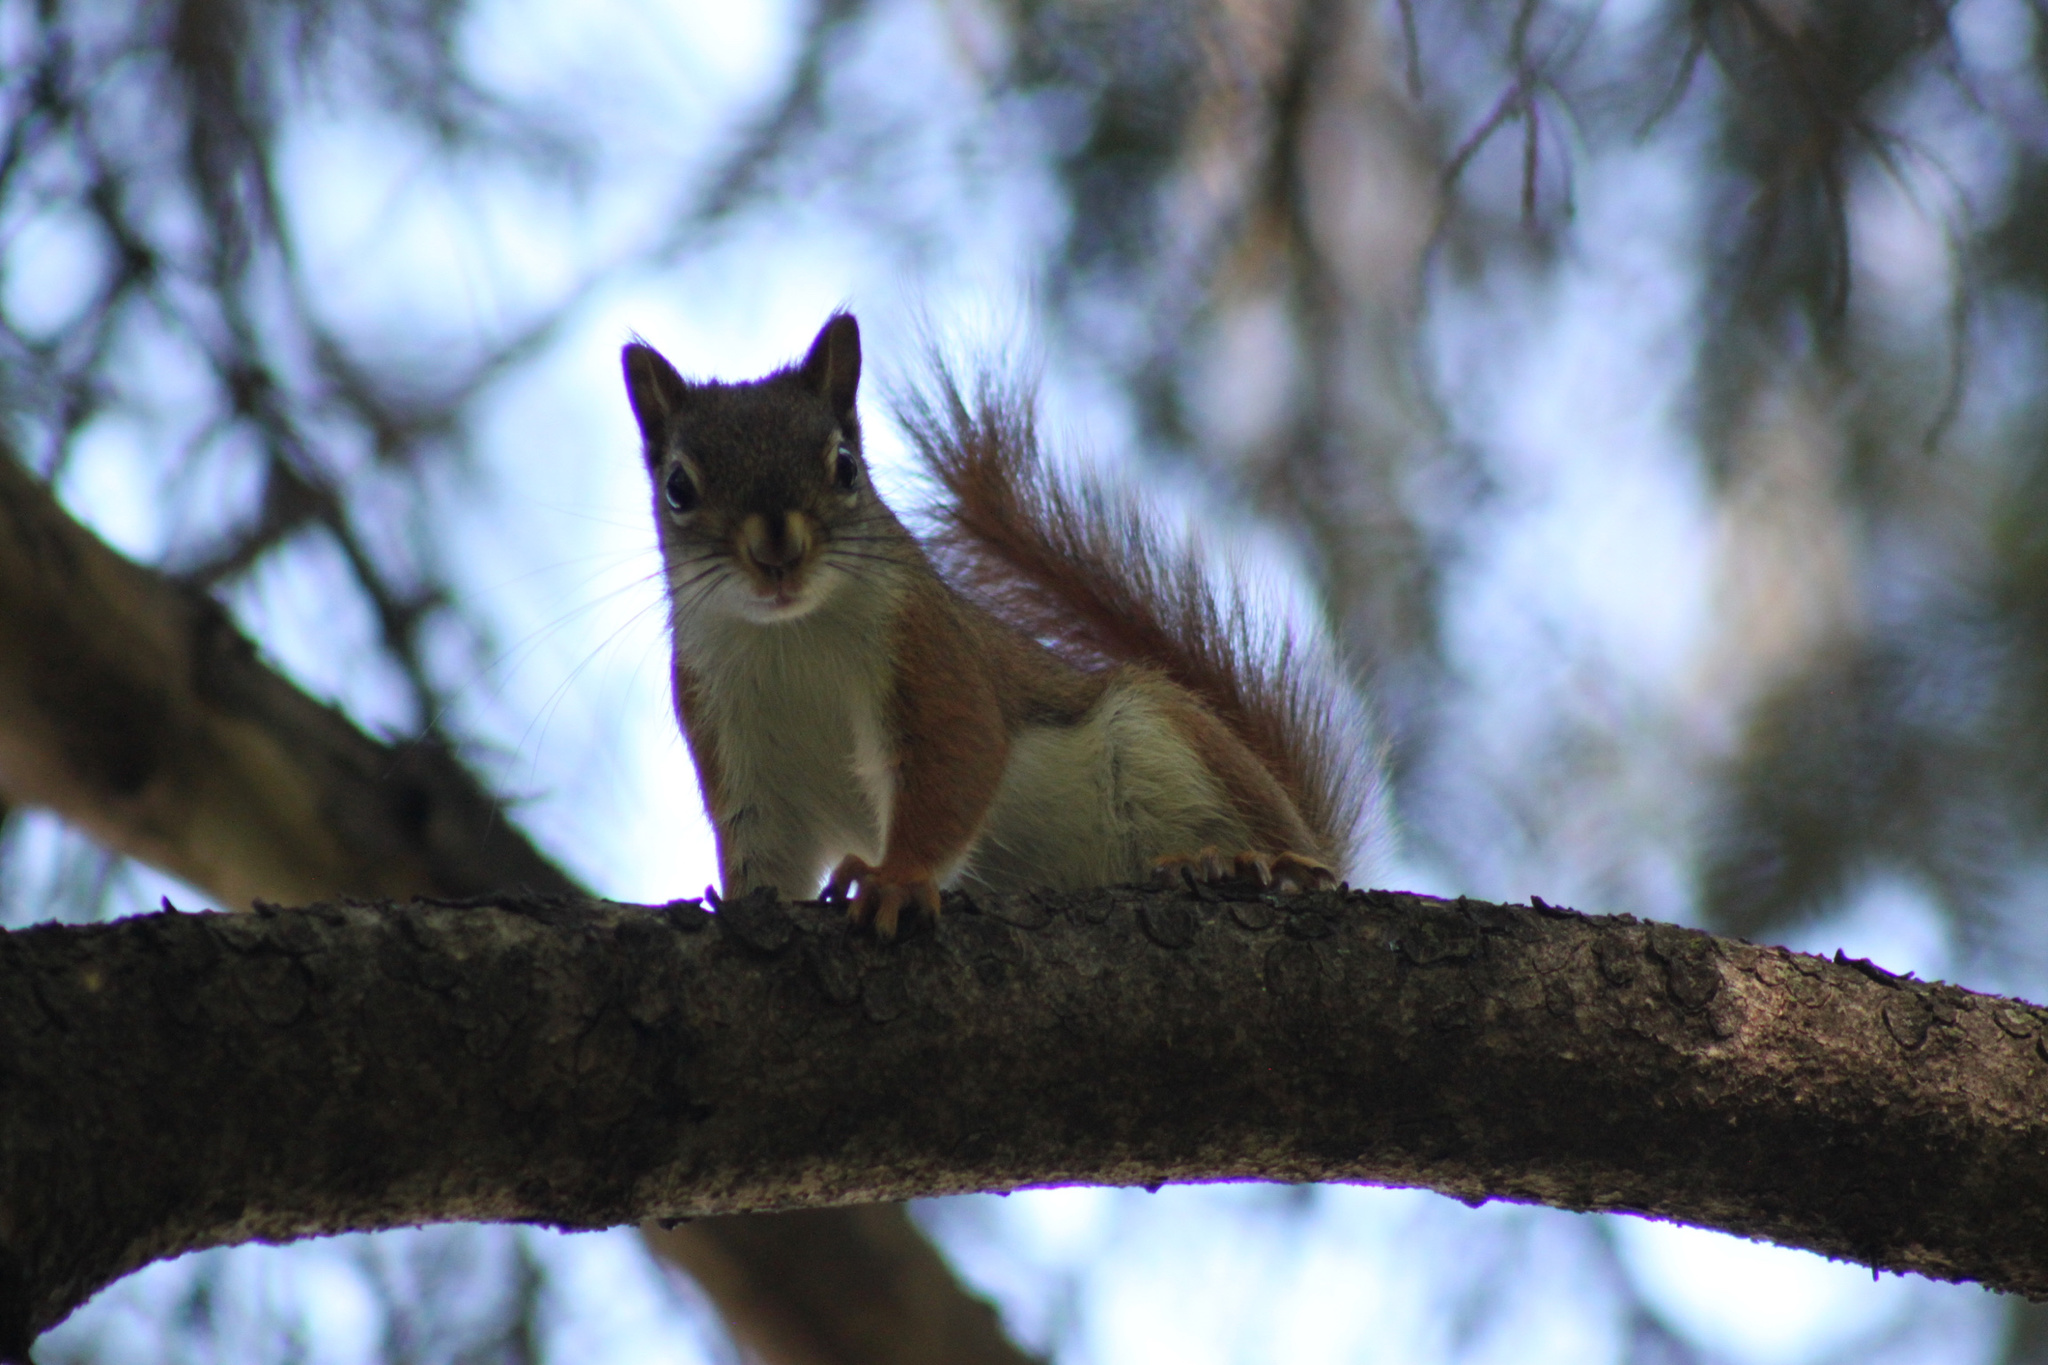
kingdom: Animalia
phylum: Chordata
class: Mammalia
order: Rodentia
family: Sciuridae
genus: Tamiasciurus
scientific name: Tamiasciurus hudsonicus
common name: Red squirrel
